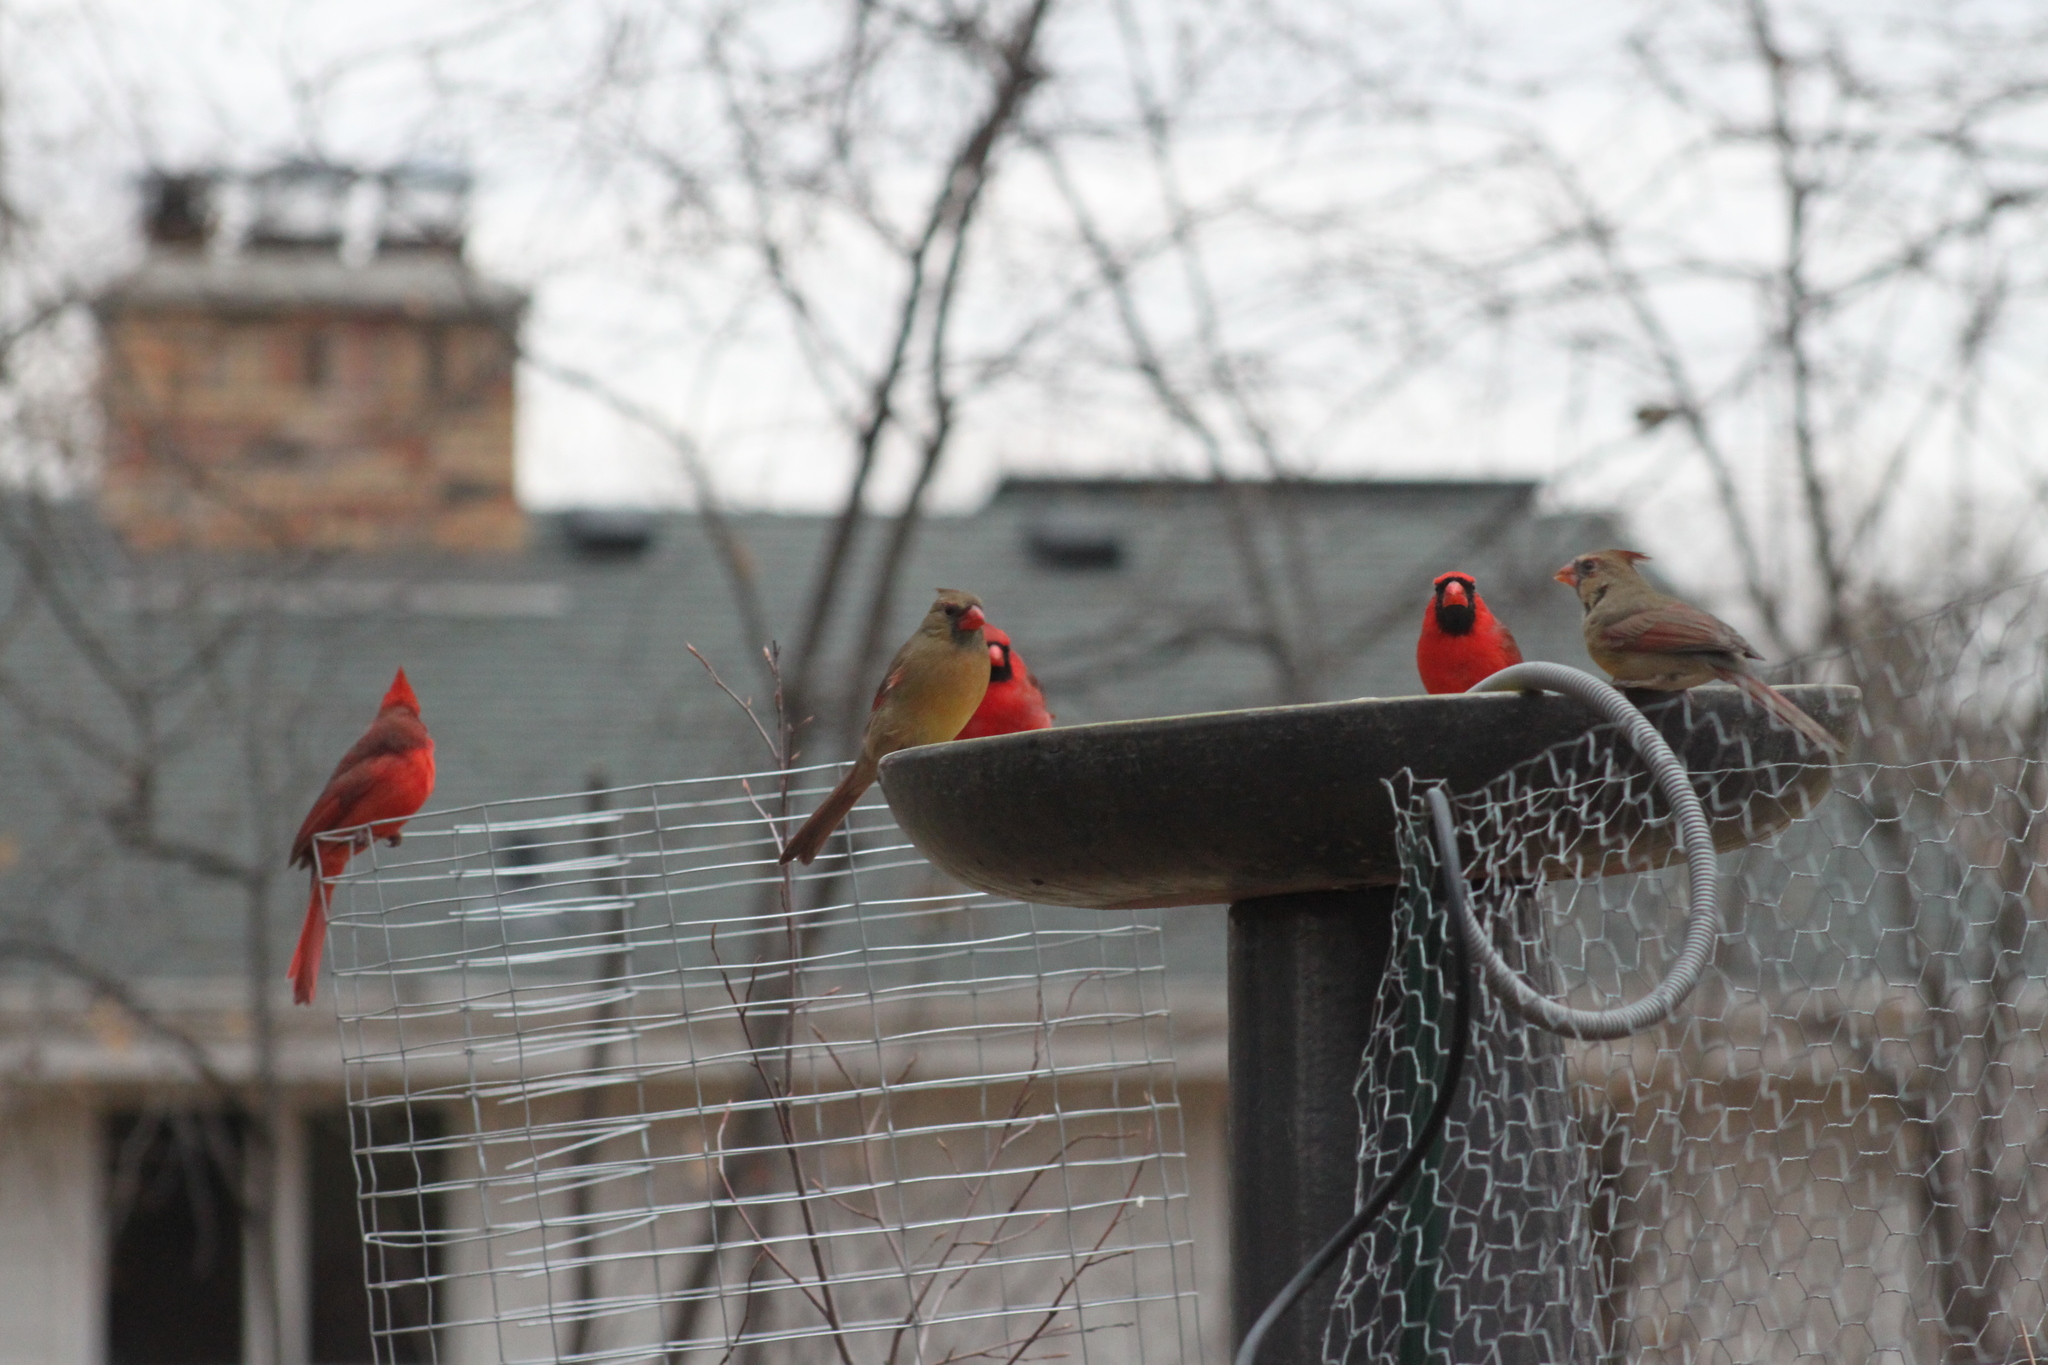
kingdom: Animalia
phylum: Chordata
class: Aves
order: Passeriformes
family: Cardinalidae
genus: Cardinalis
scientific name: Cardinalis cardinalis
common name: Northern cardinal
